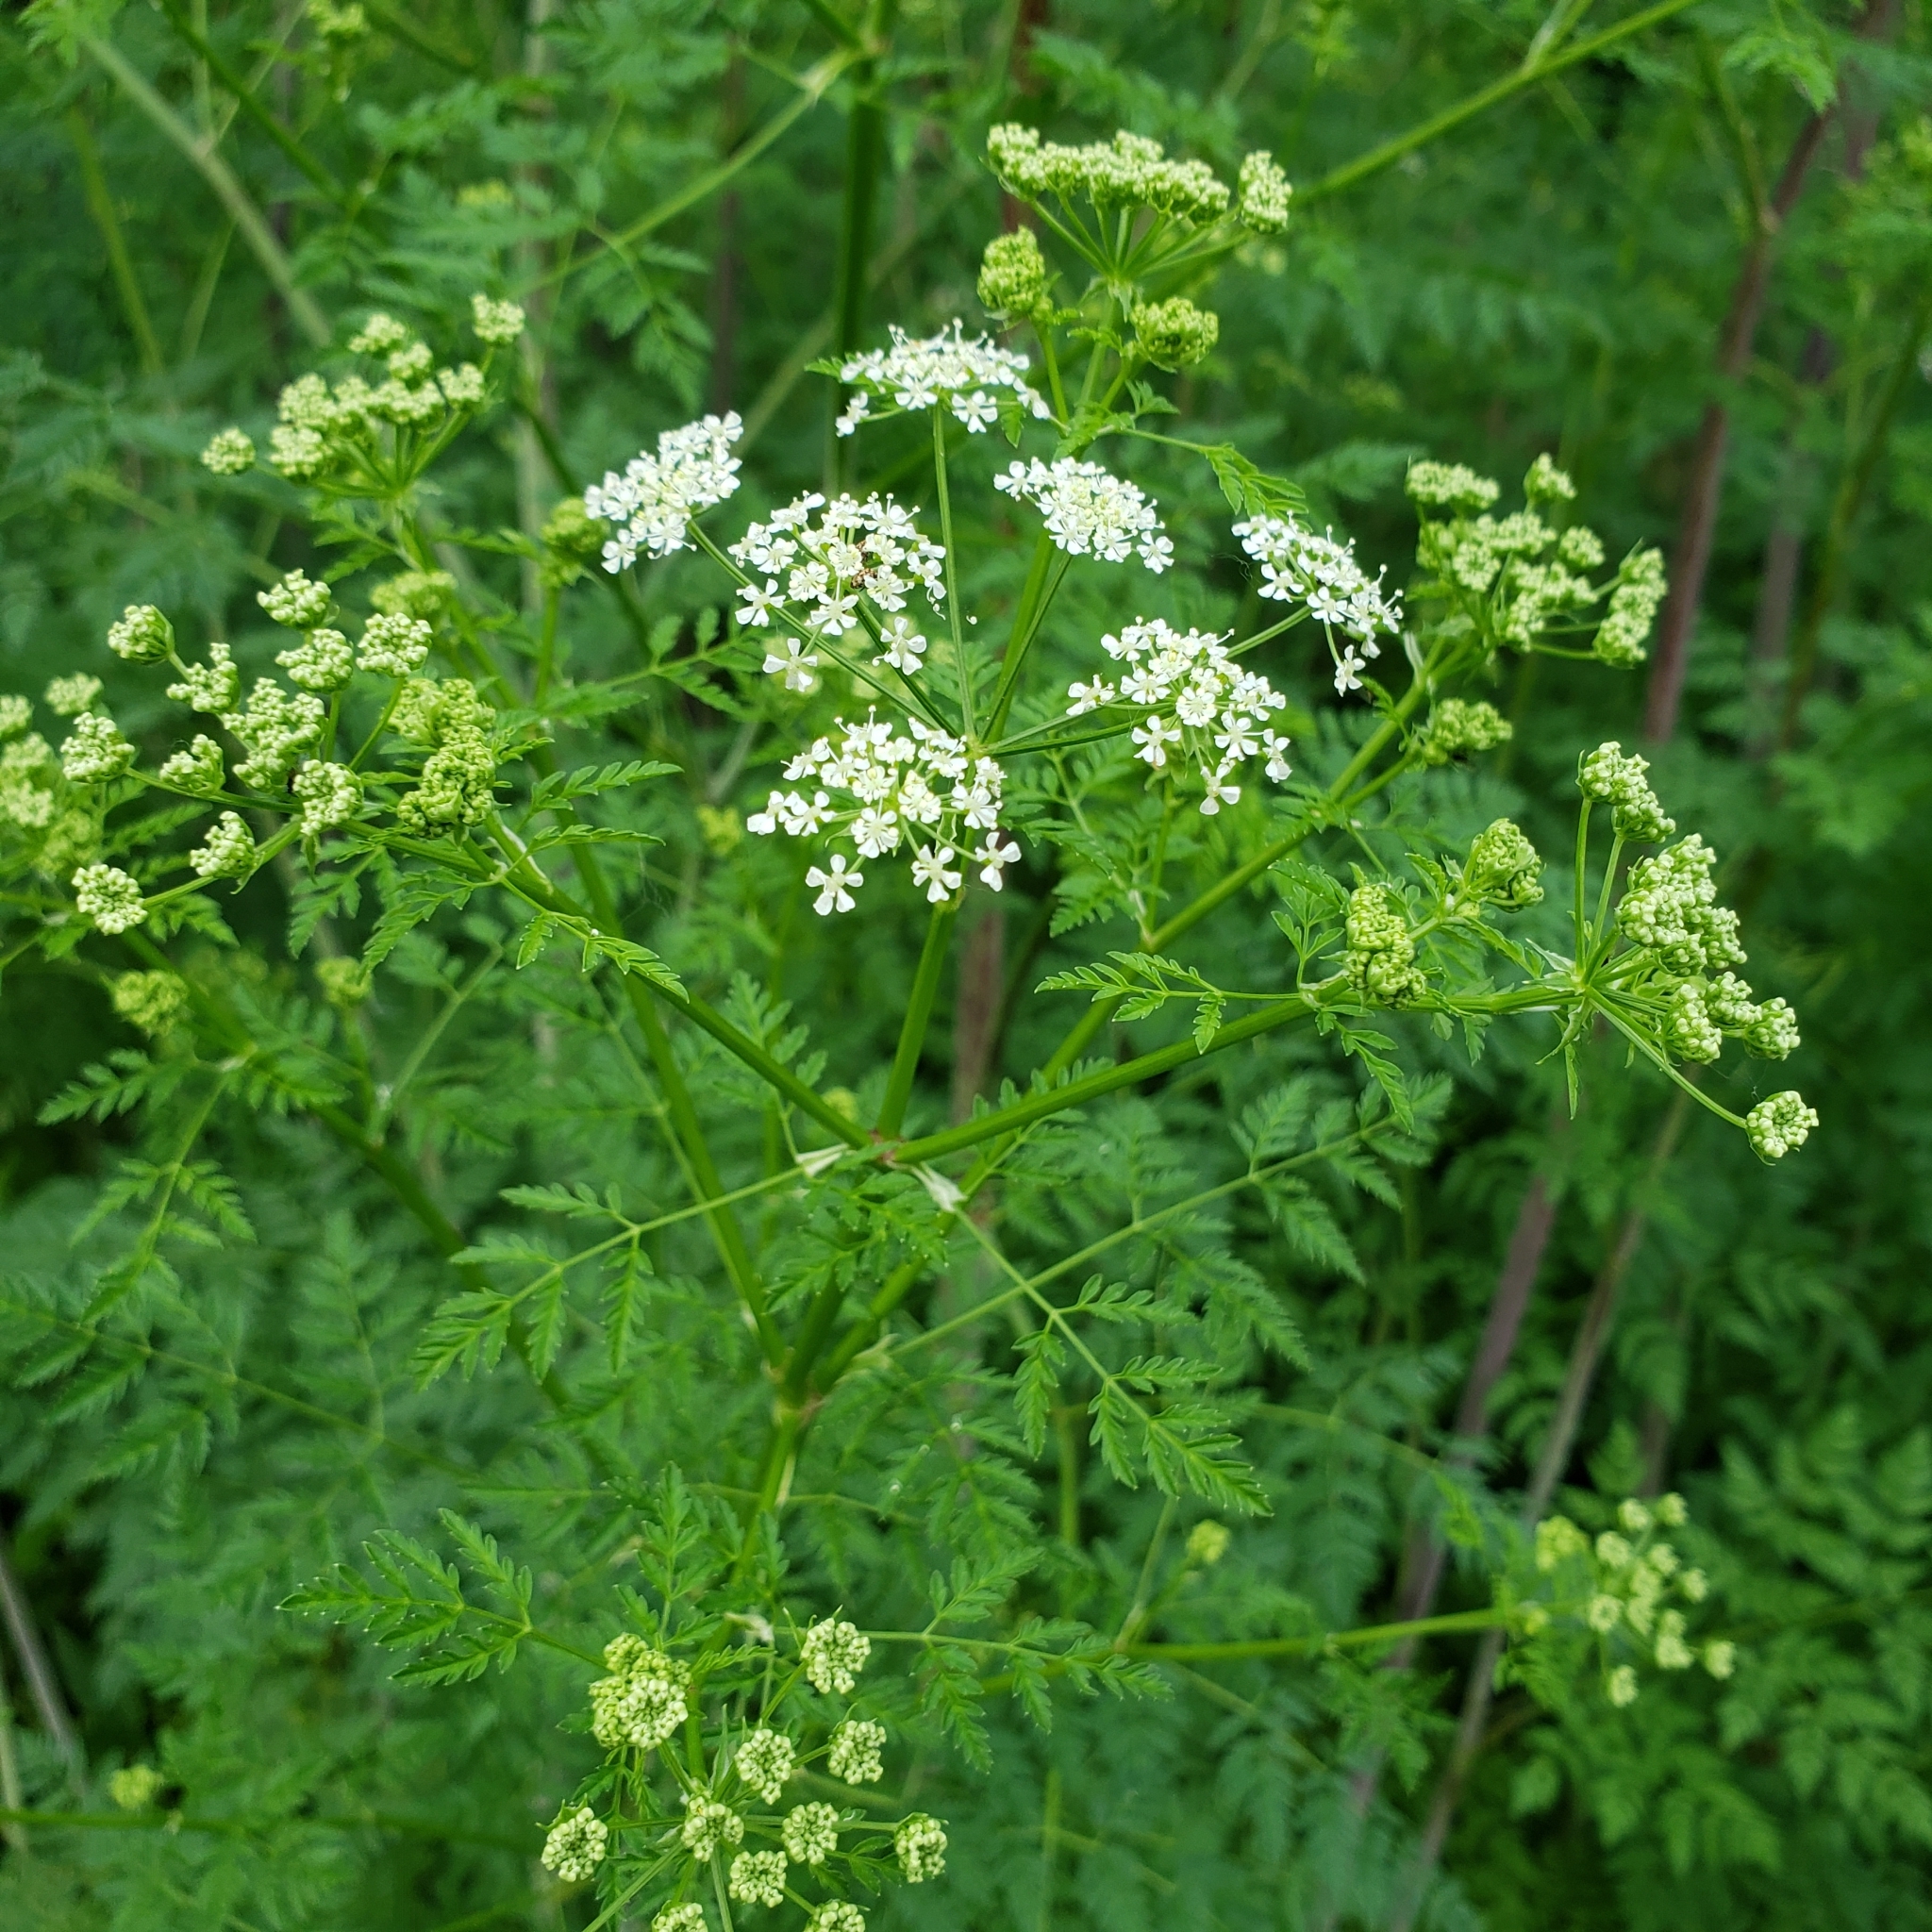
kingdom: Plantae
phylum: Tracheophyta
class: Magnoliopsida
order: Apiales
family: Apiaceae
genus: Conium
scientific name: Conium maculatum
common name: Hemlock
